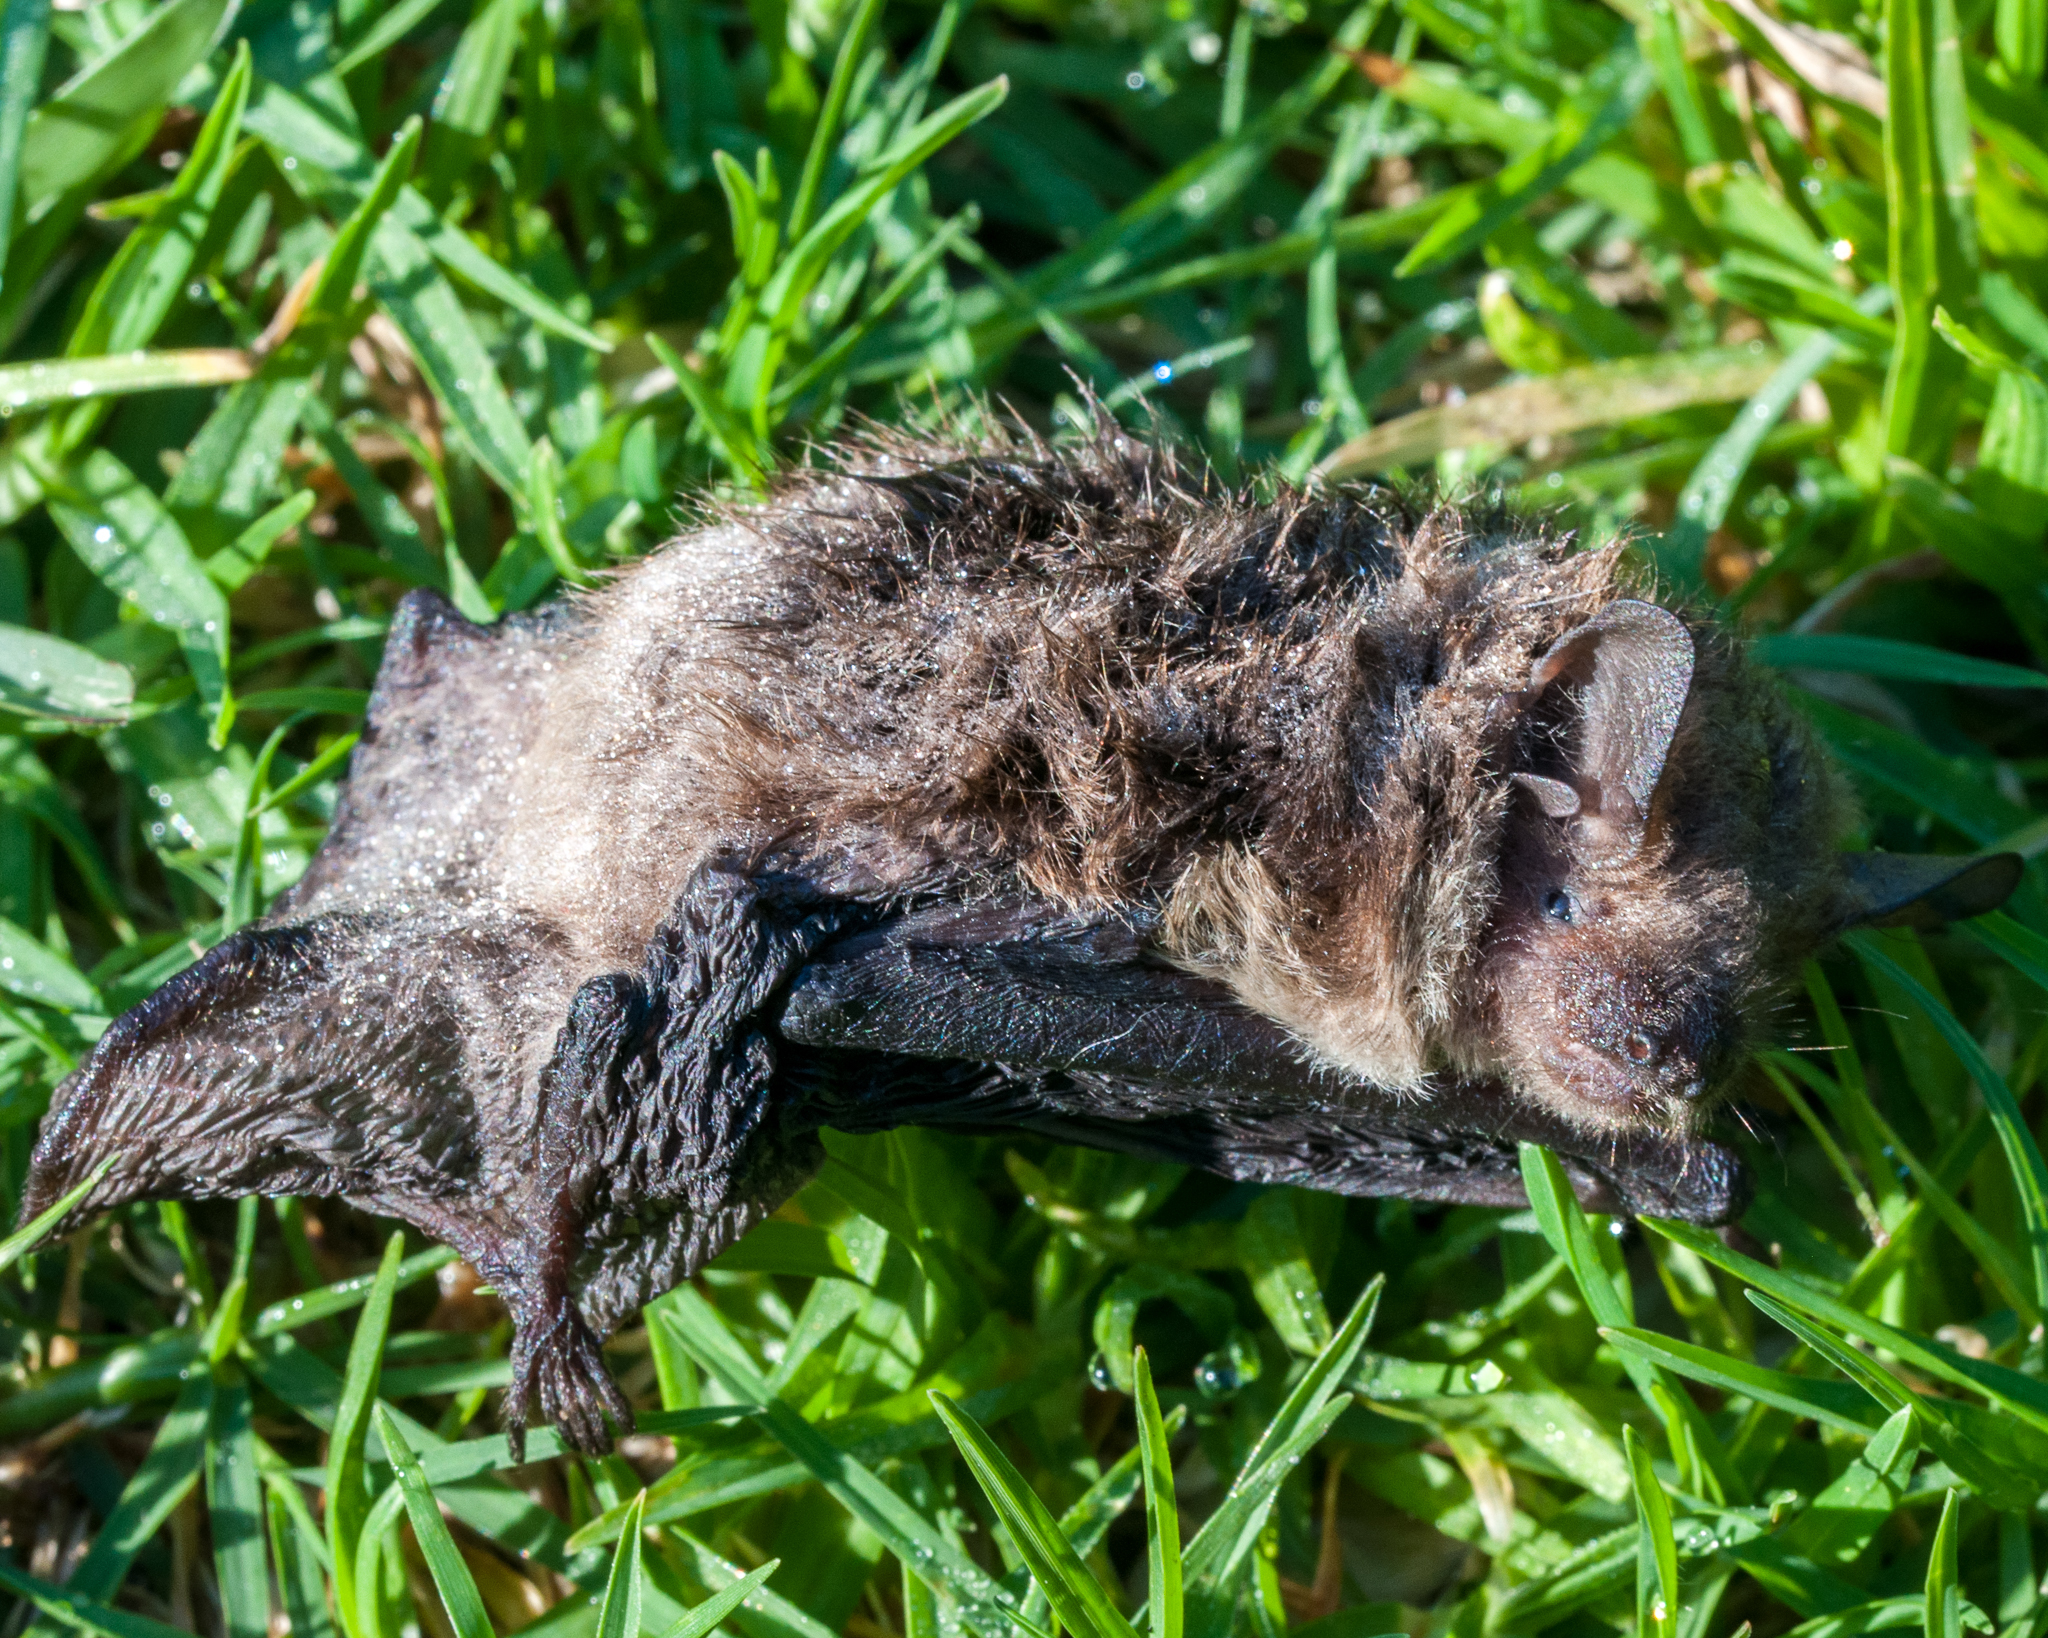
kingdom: Animalia
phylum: Chordata
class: Mammalia
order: Chiroptera
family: Vespertilionidae
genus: Laephotis
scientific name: Laephotis capensis
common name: Cape serotine
